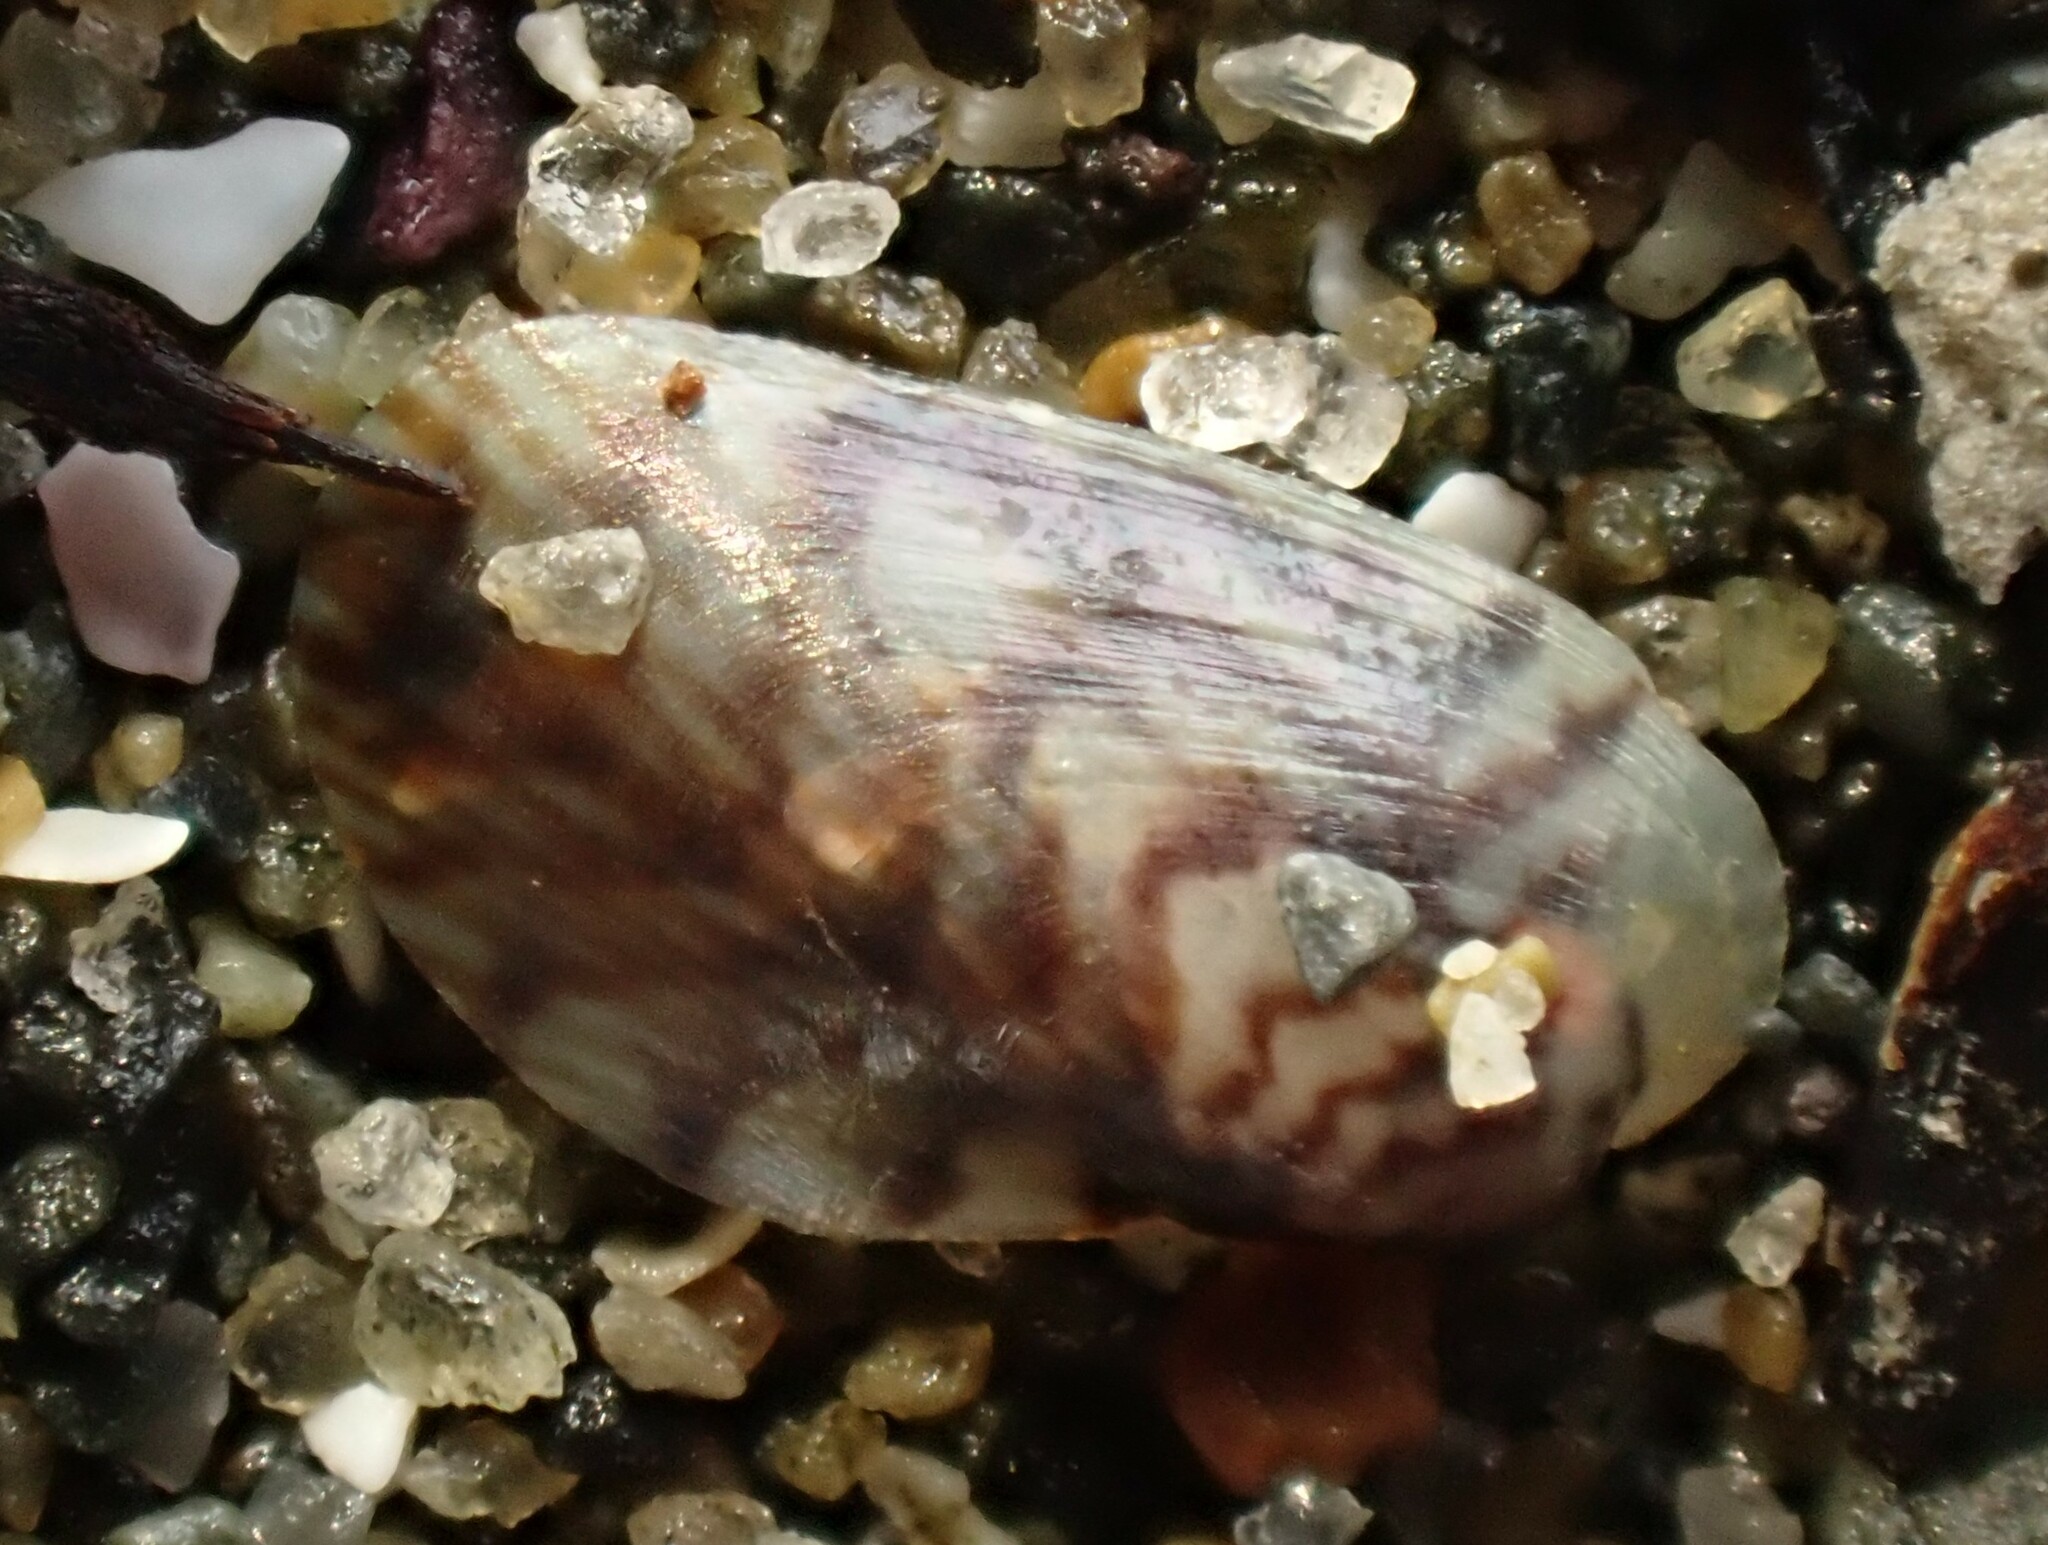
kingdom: Animalia
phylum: Mollusca
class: Bivalvia
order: Mytilida
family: Mytilidae
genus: Arcuatula
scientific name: Arcuatula senhousia
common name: Asian mussel
